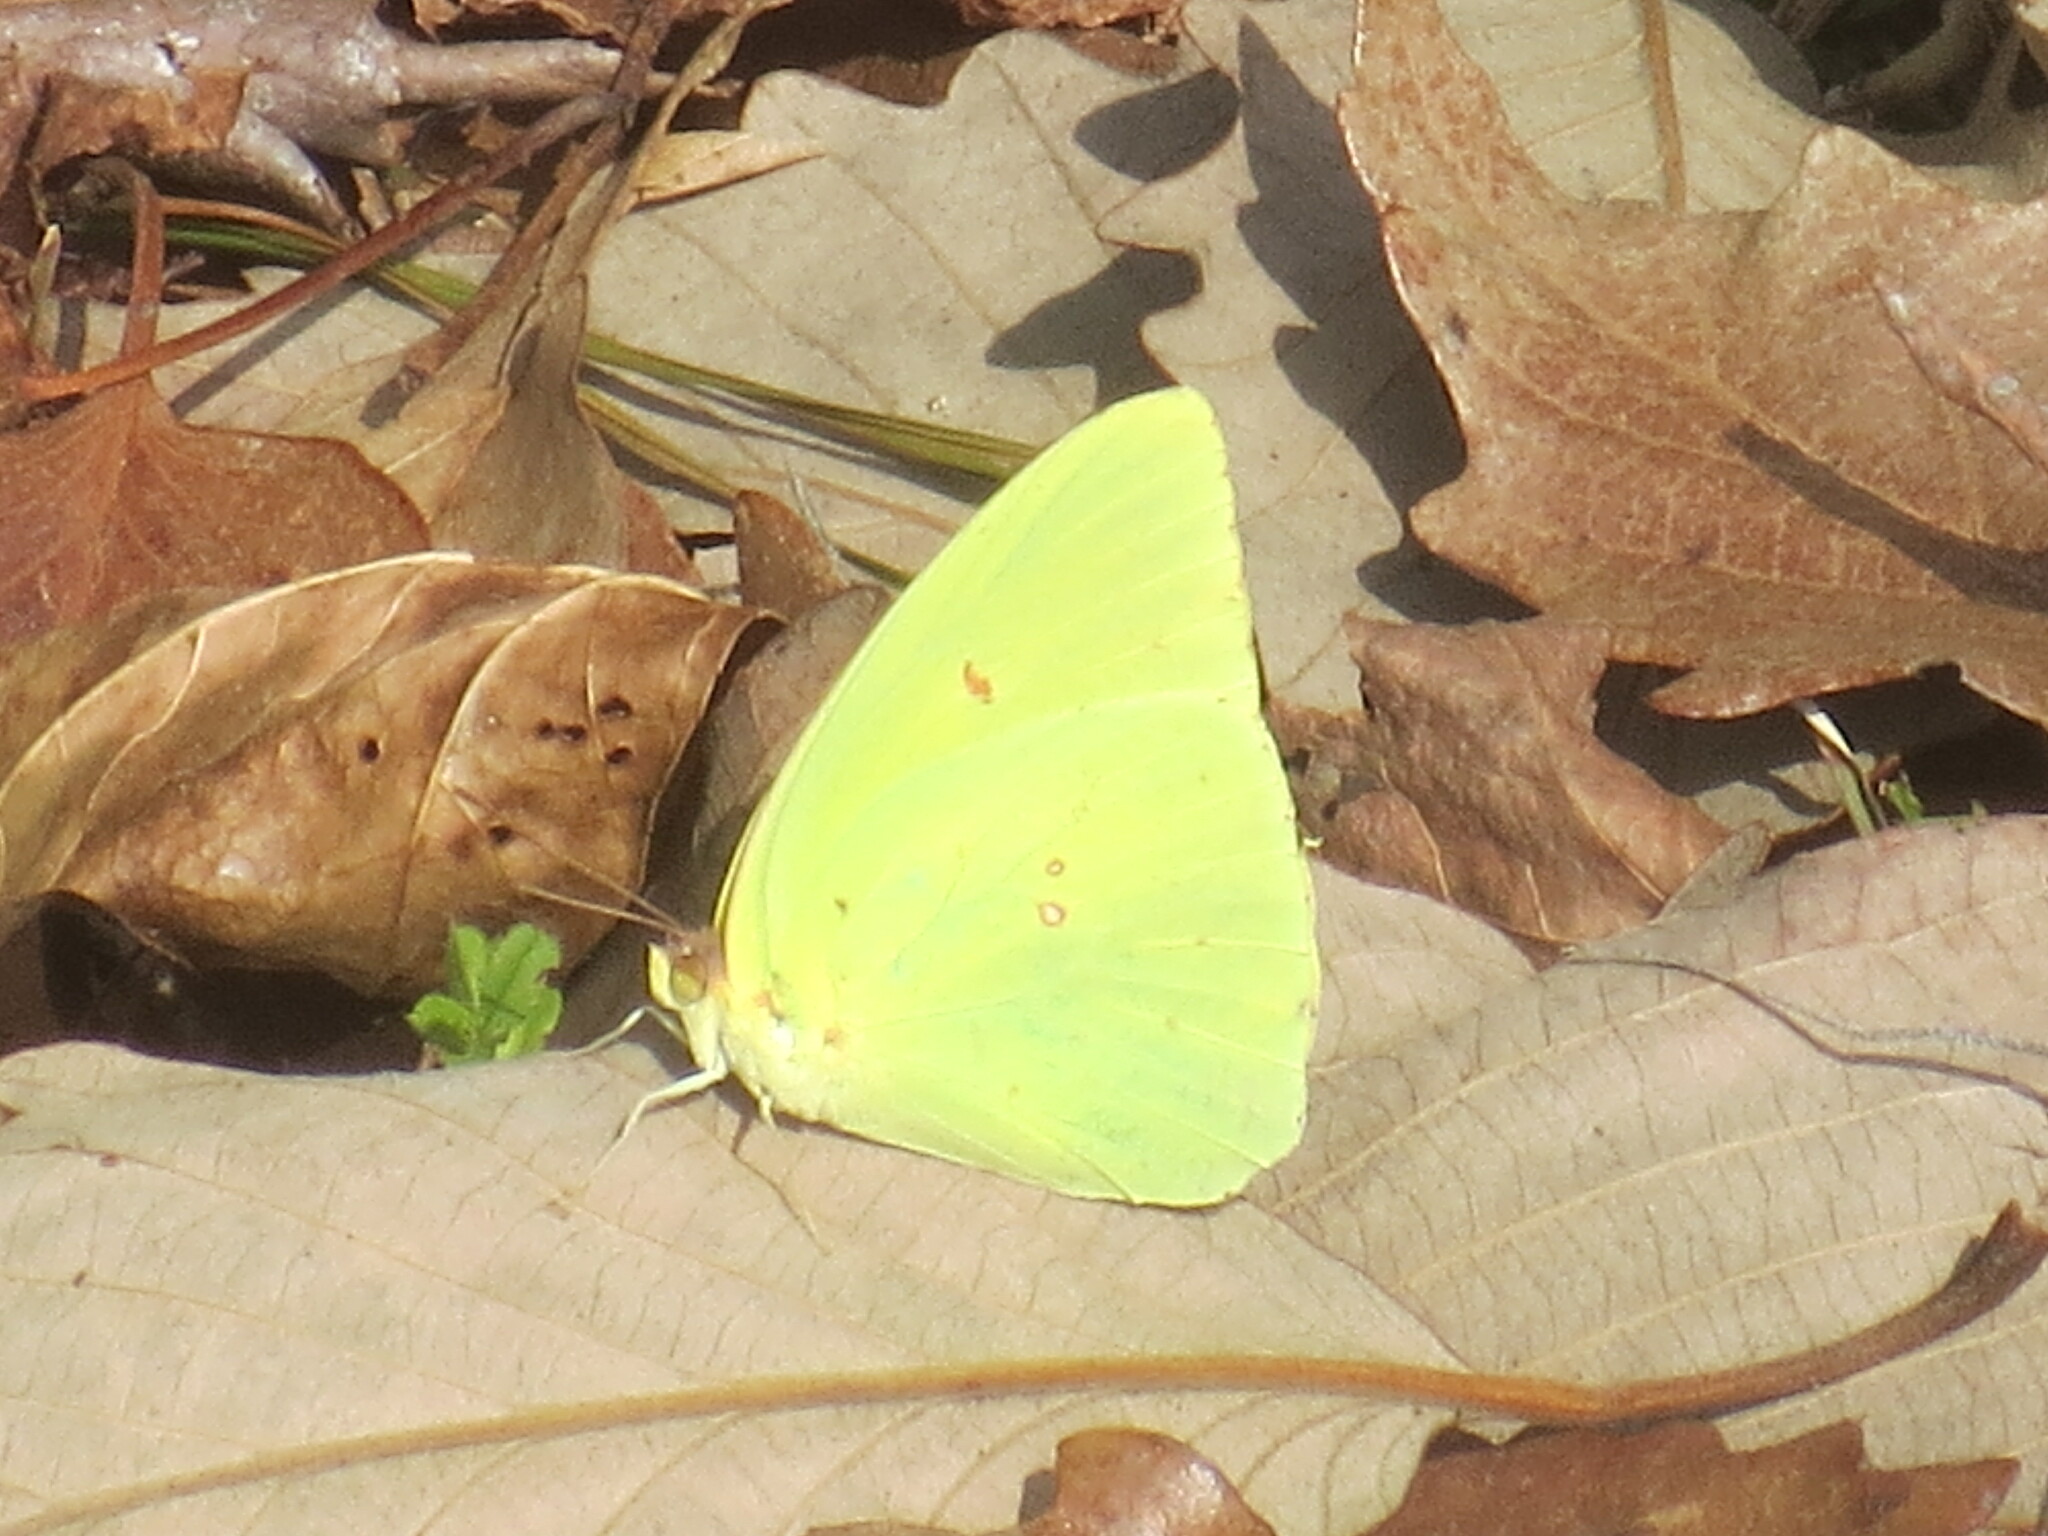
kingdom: Animalia
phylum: Arthropoda
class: Insecta
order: Lepidoptera
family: Pieridae
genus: Phoebis
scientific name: Phoebis sennae
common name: Cloudless sulphur
